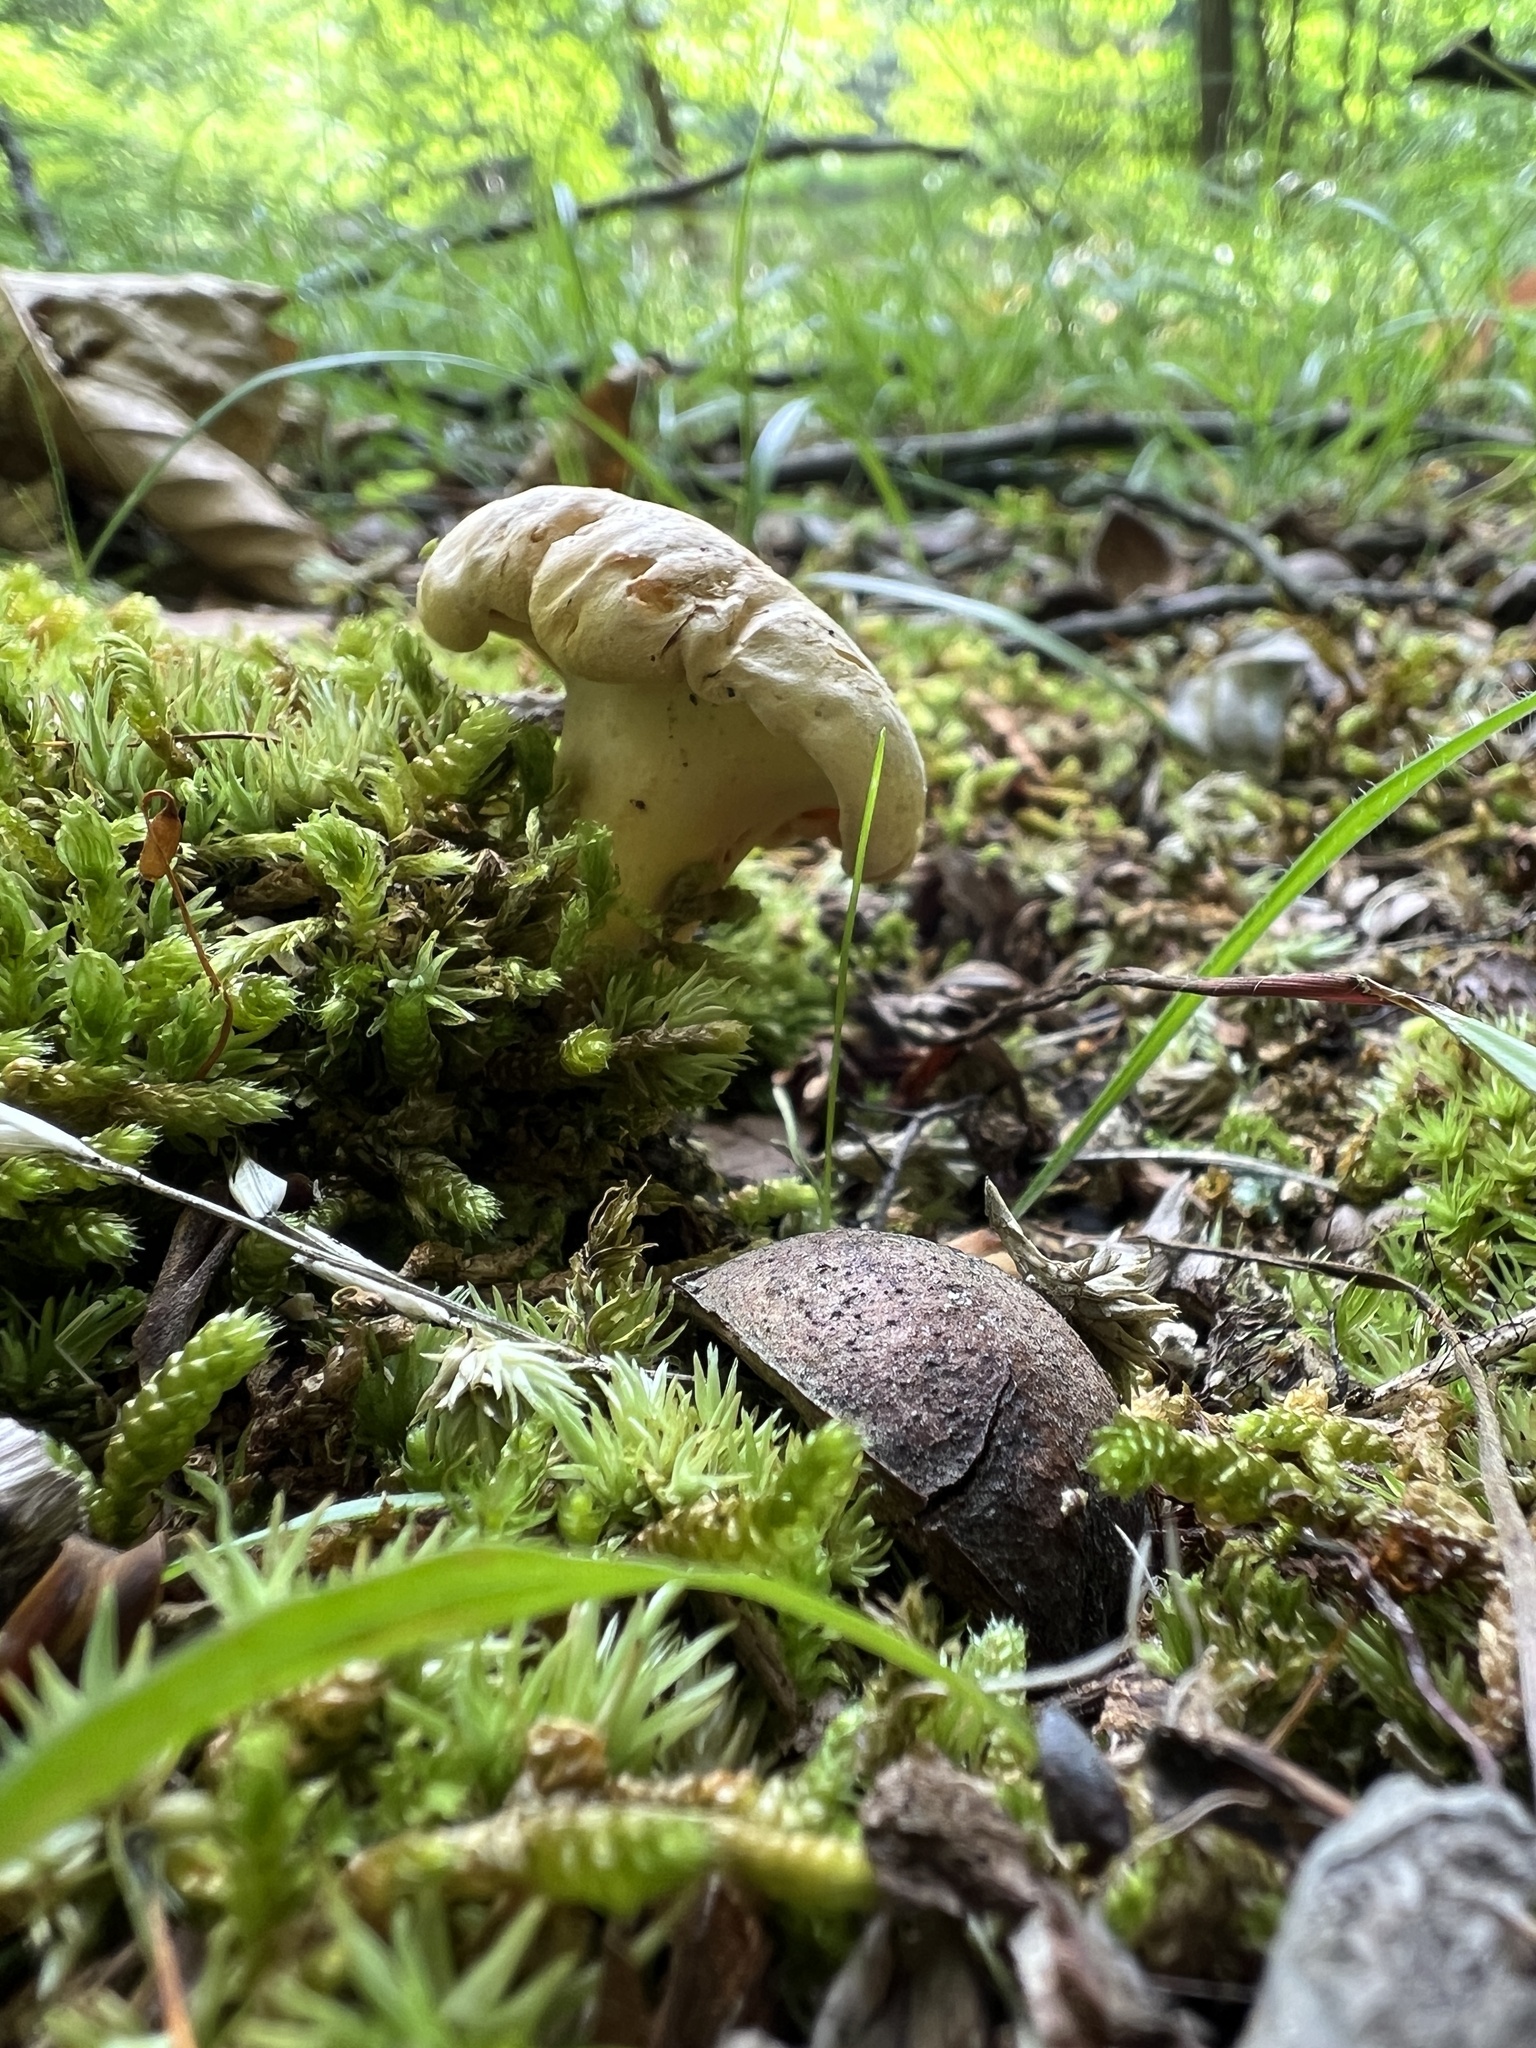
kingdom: Fungi
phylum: Basidiomycota
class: Agaricomycetes
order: Cantharellales
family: Hydnaceae
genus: Cantharellus
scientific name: Cantharellus flavolateritius
